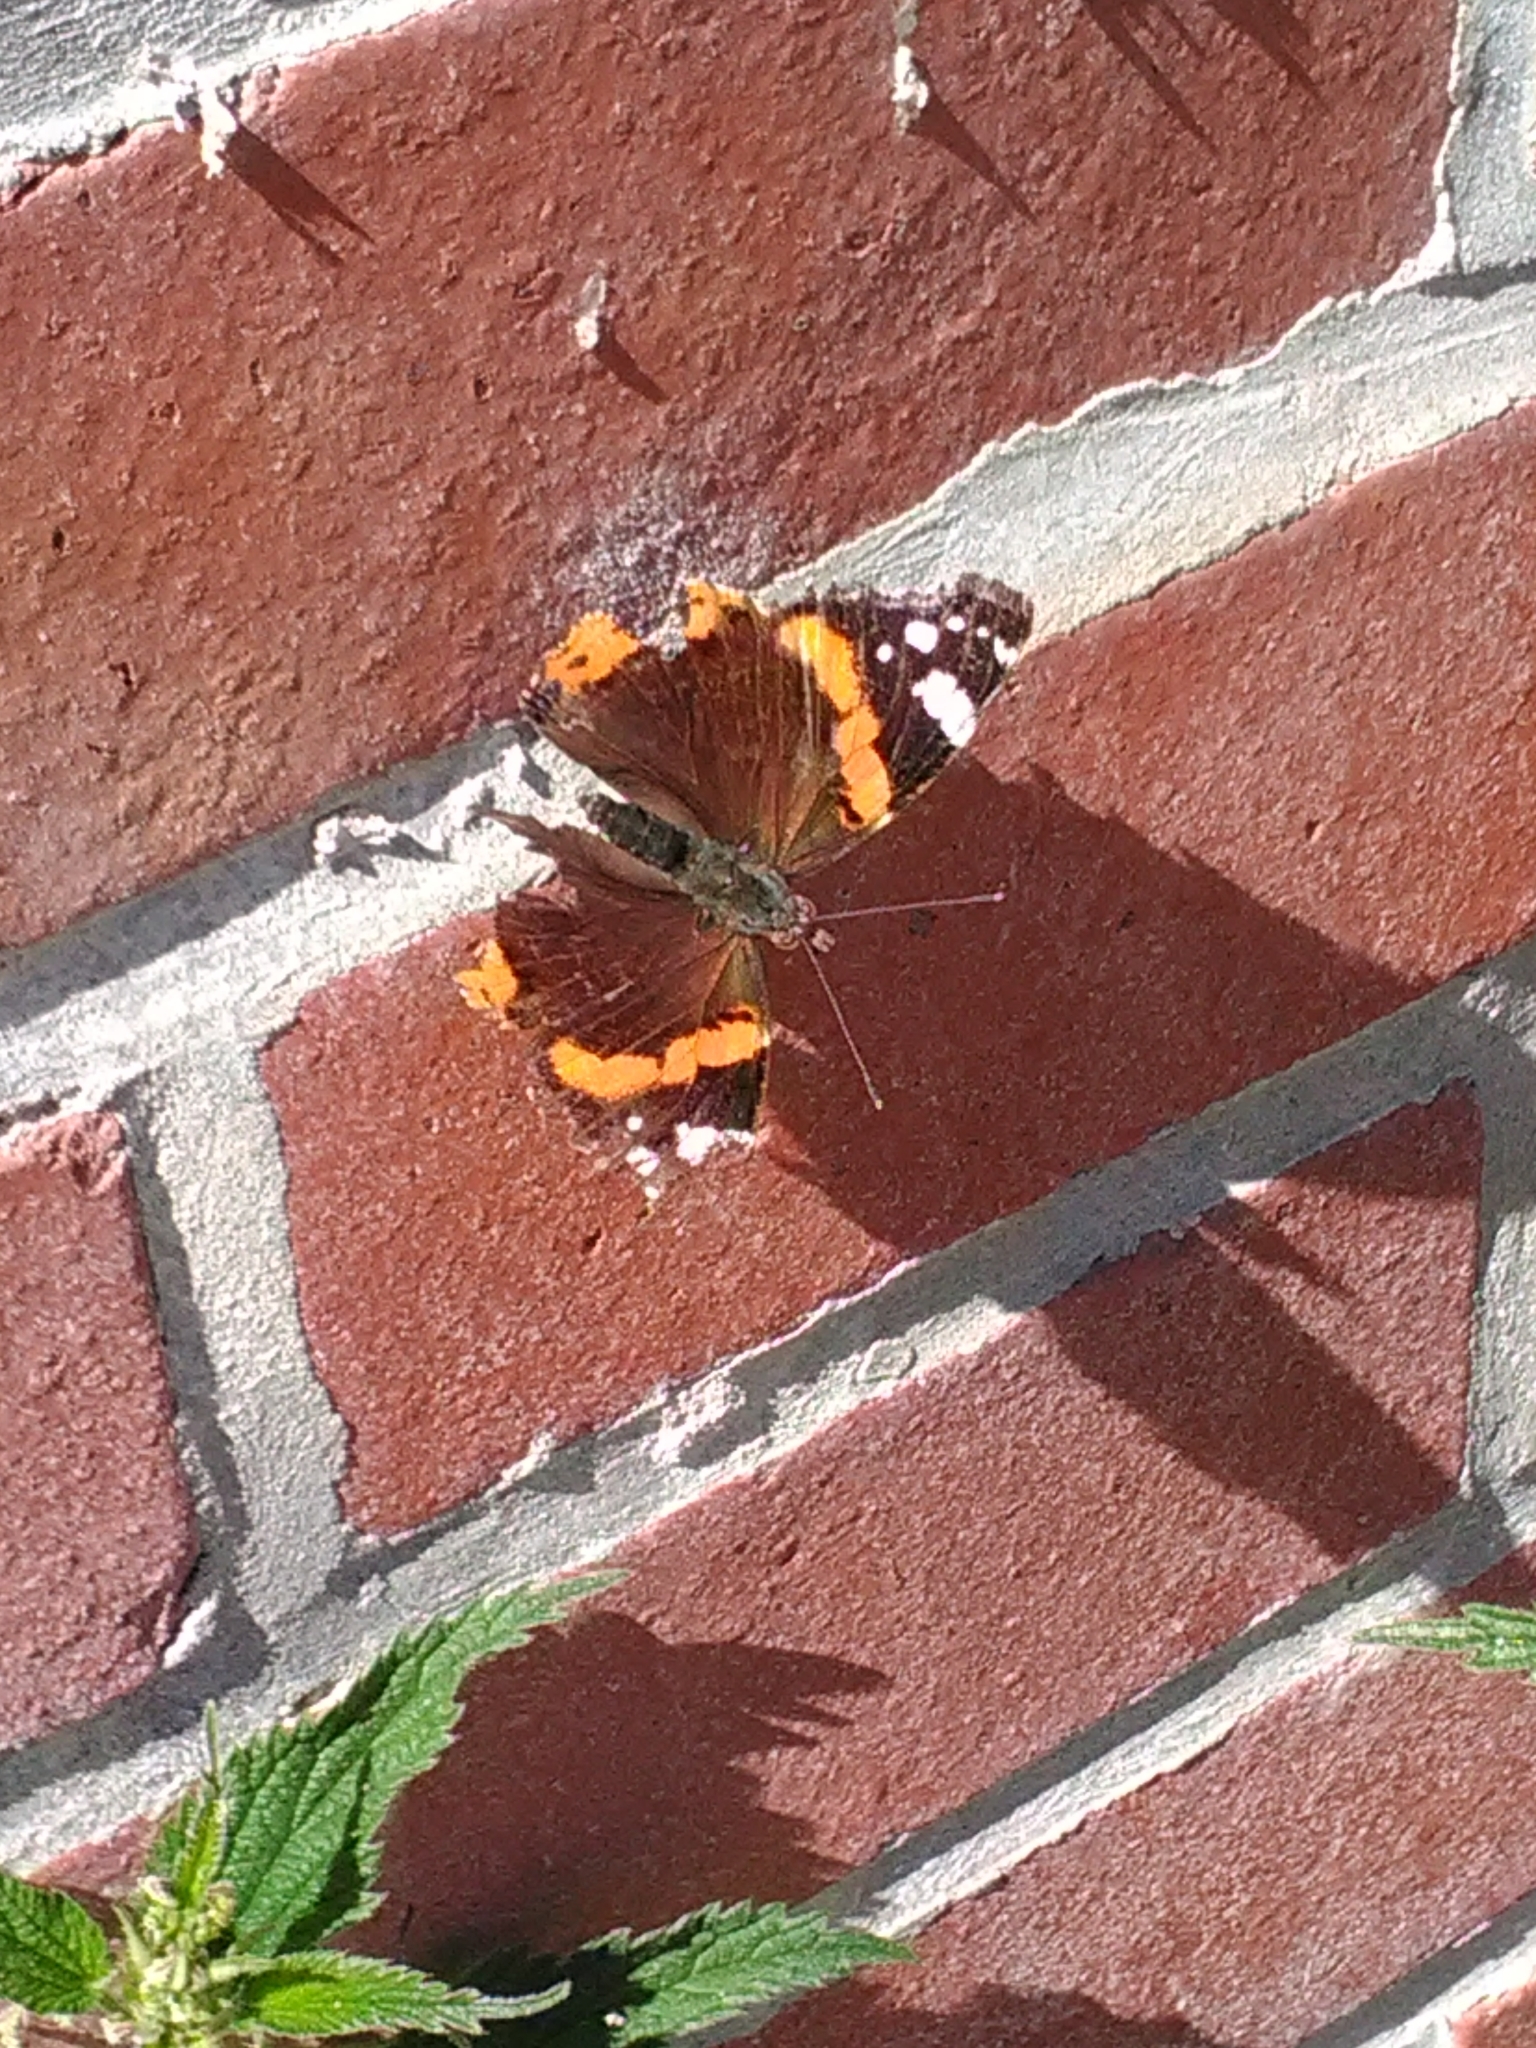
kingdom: Animalia
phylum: Arthropoda
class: Insecta
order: Lepidoptera
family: Nymphalidae
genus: Vanessa
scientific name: Vanessa atalanta
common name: Red admiral
